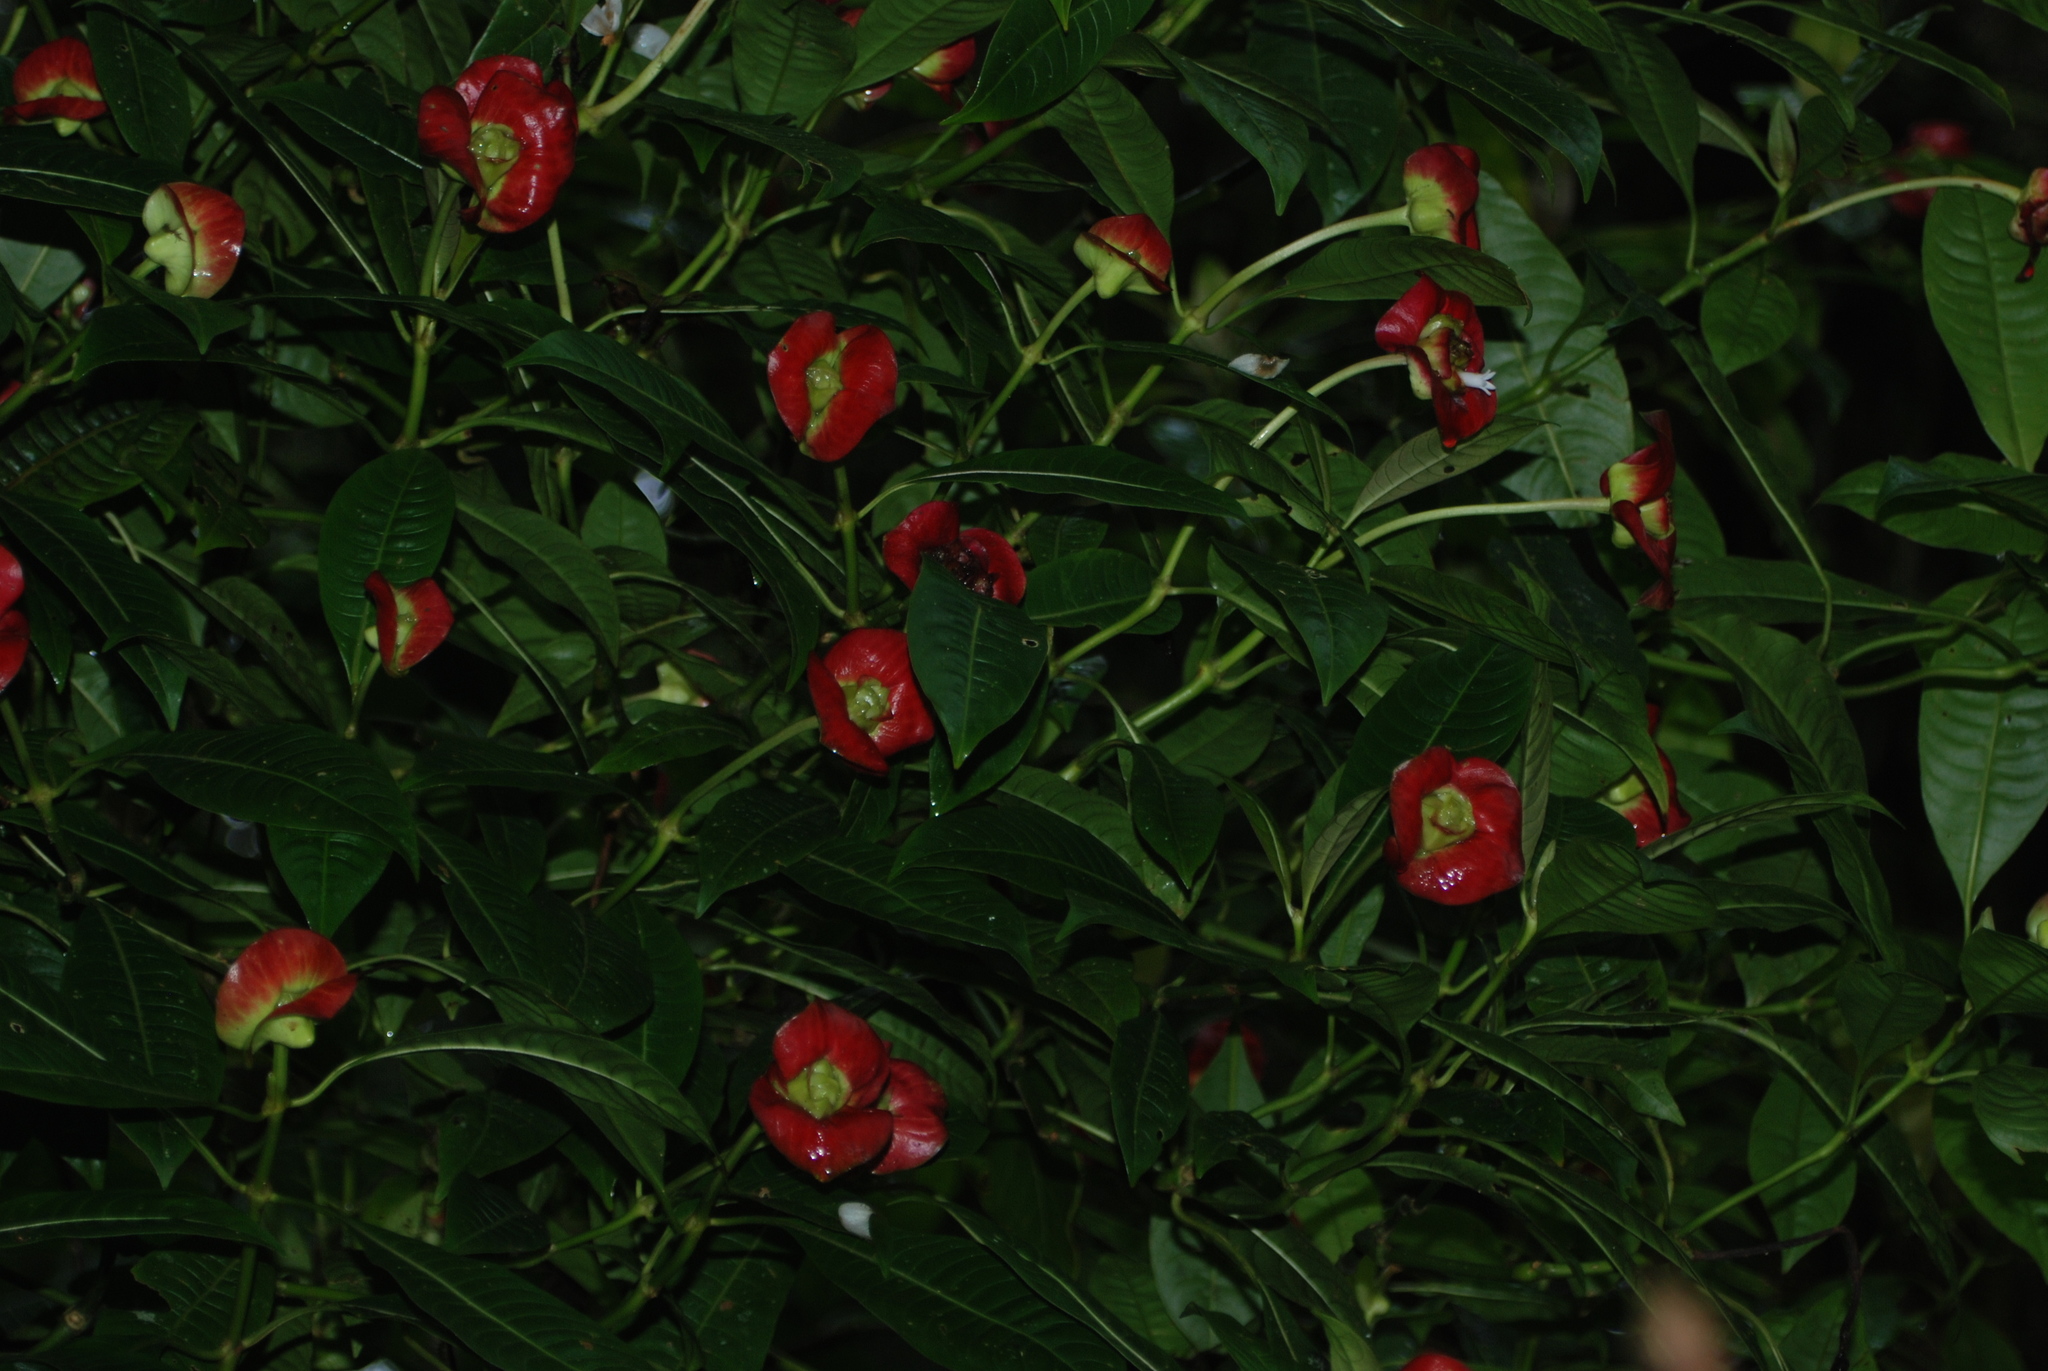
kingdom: Plantae
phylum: Tracheophyta
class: Magnoliopsida
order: Gentianales
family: Rubiaceae
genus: Palicourea
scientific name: Palicourea elata
